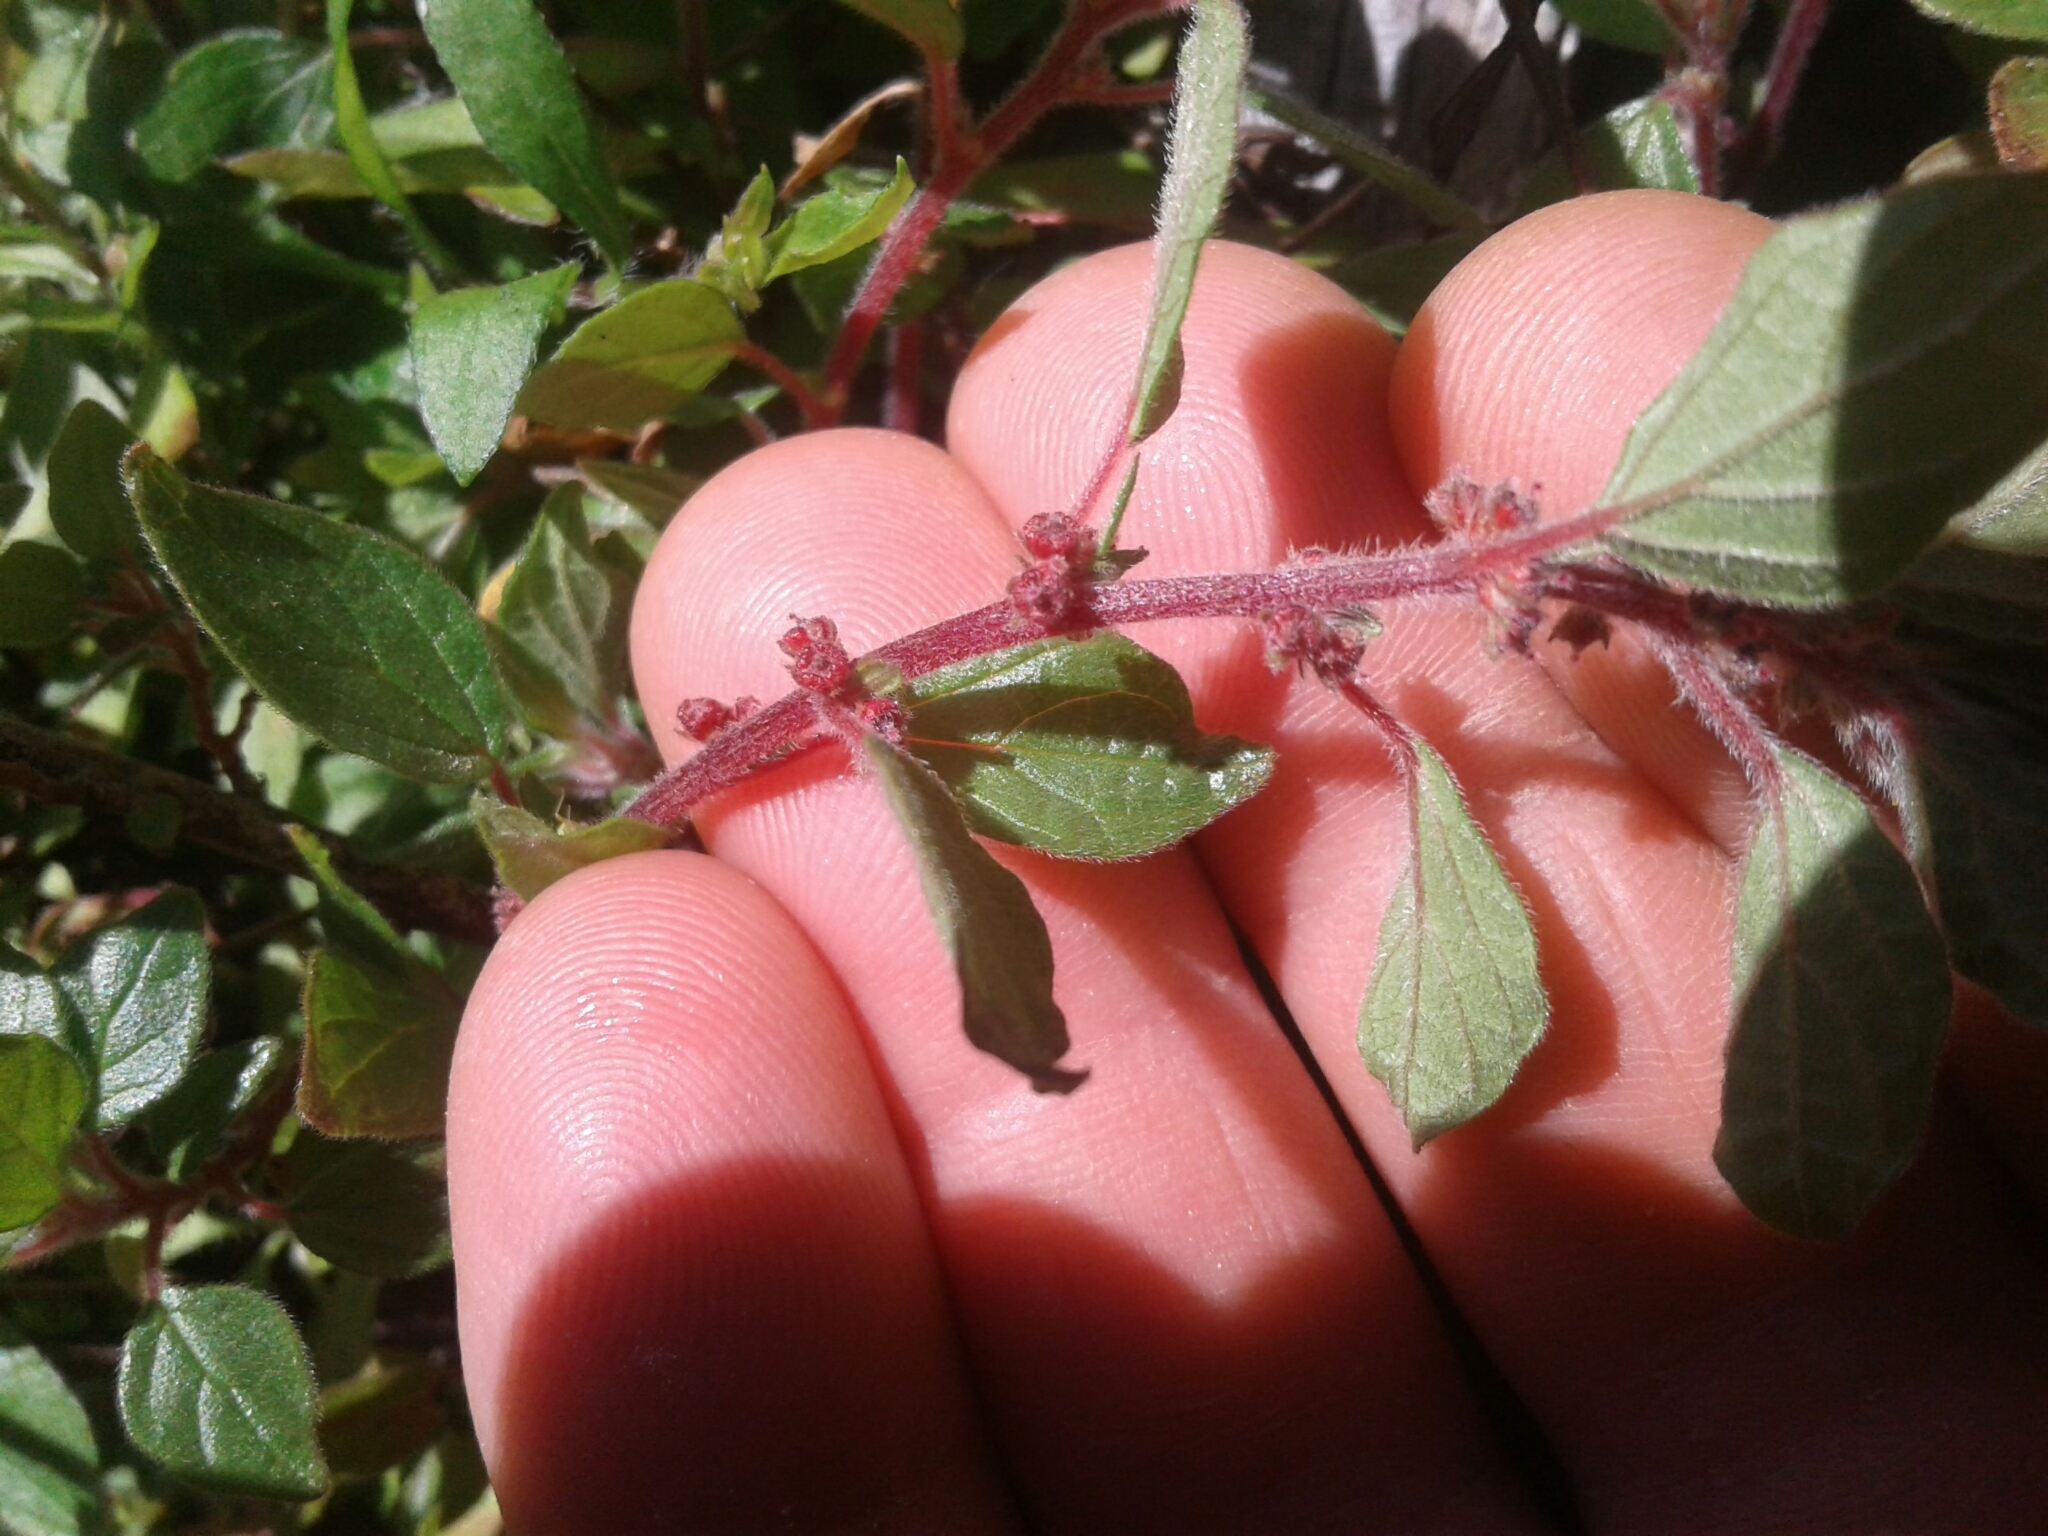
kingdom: Plantae
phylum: Tracheophyta
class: Magnoliopsida
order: Rosales
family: Urticaceae
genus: Parietaria
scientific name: Parietaria judaica
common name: Pellitory-of-the-wall
